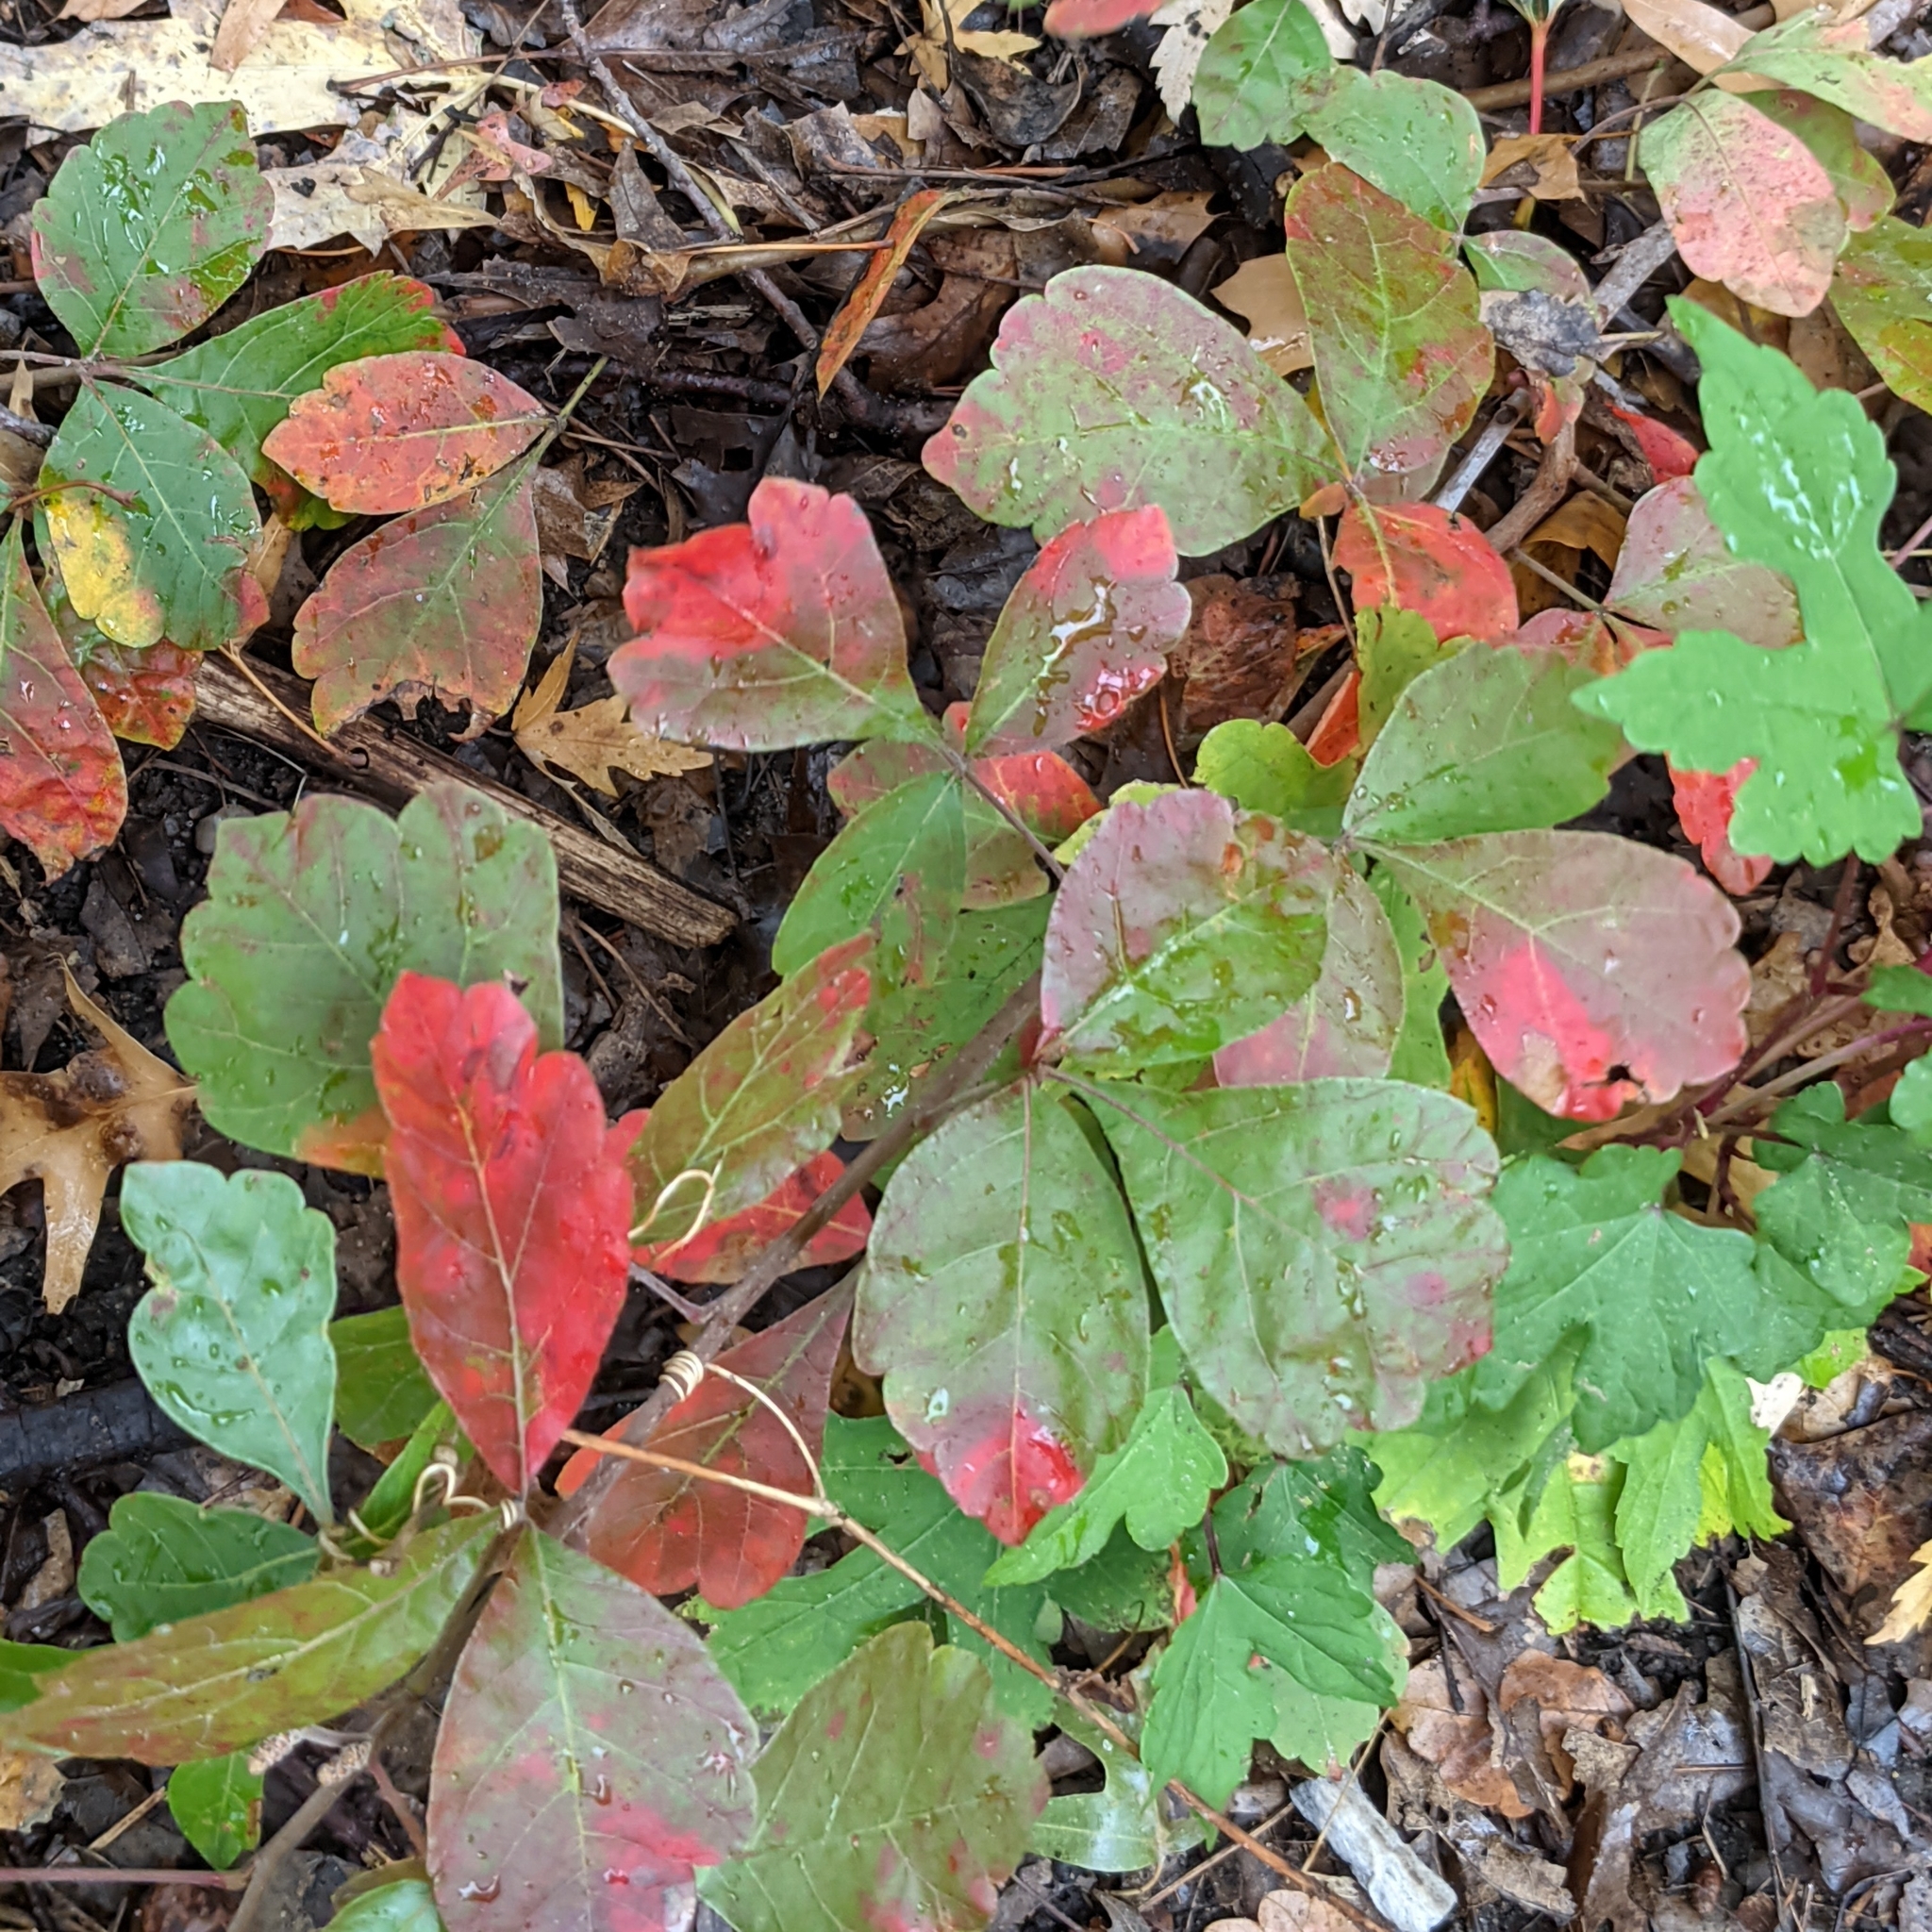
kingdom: Plantae
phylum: Tracheophyta
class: Magnoliopsida
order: Sapindales
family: Anacardiaceae
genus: Toxicodendron
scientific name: Toxicodendron radicans
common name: Poison ivy
